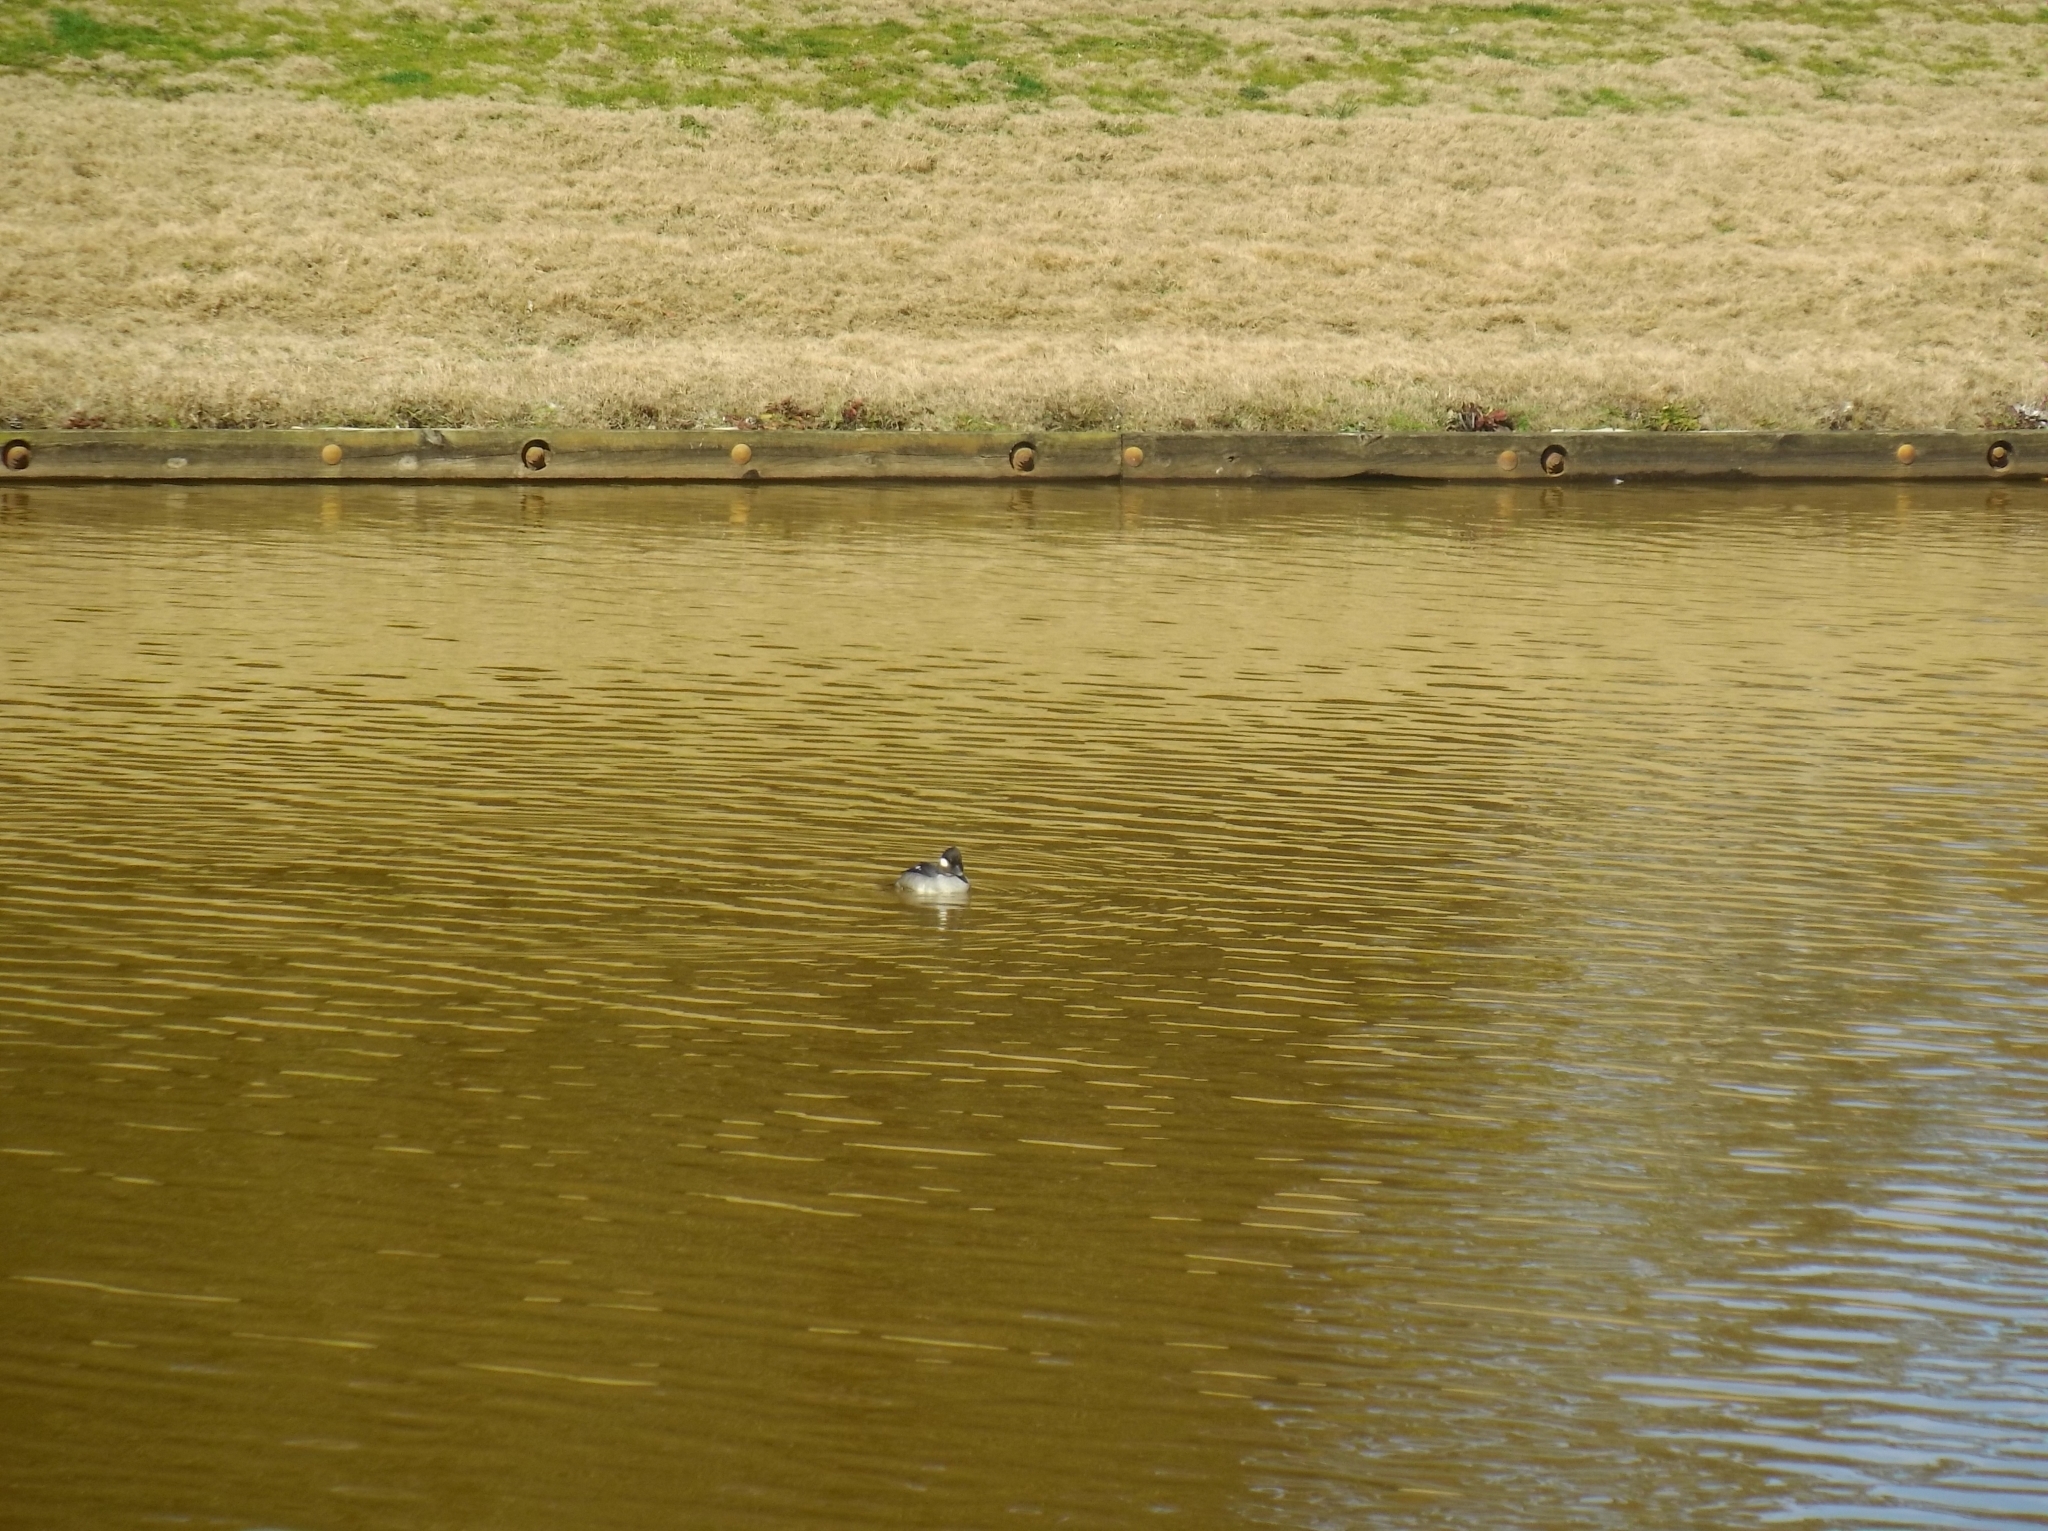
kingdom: Animalia
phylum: Chordata
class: Aves
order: Anseriformes
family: Anatidae
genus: Bucephala
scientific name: Bucephala albeola
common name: Bufflehead
